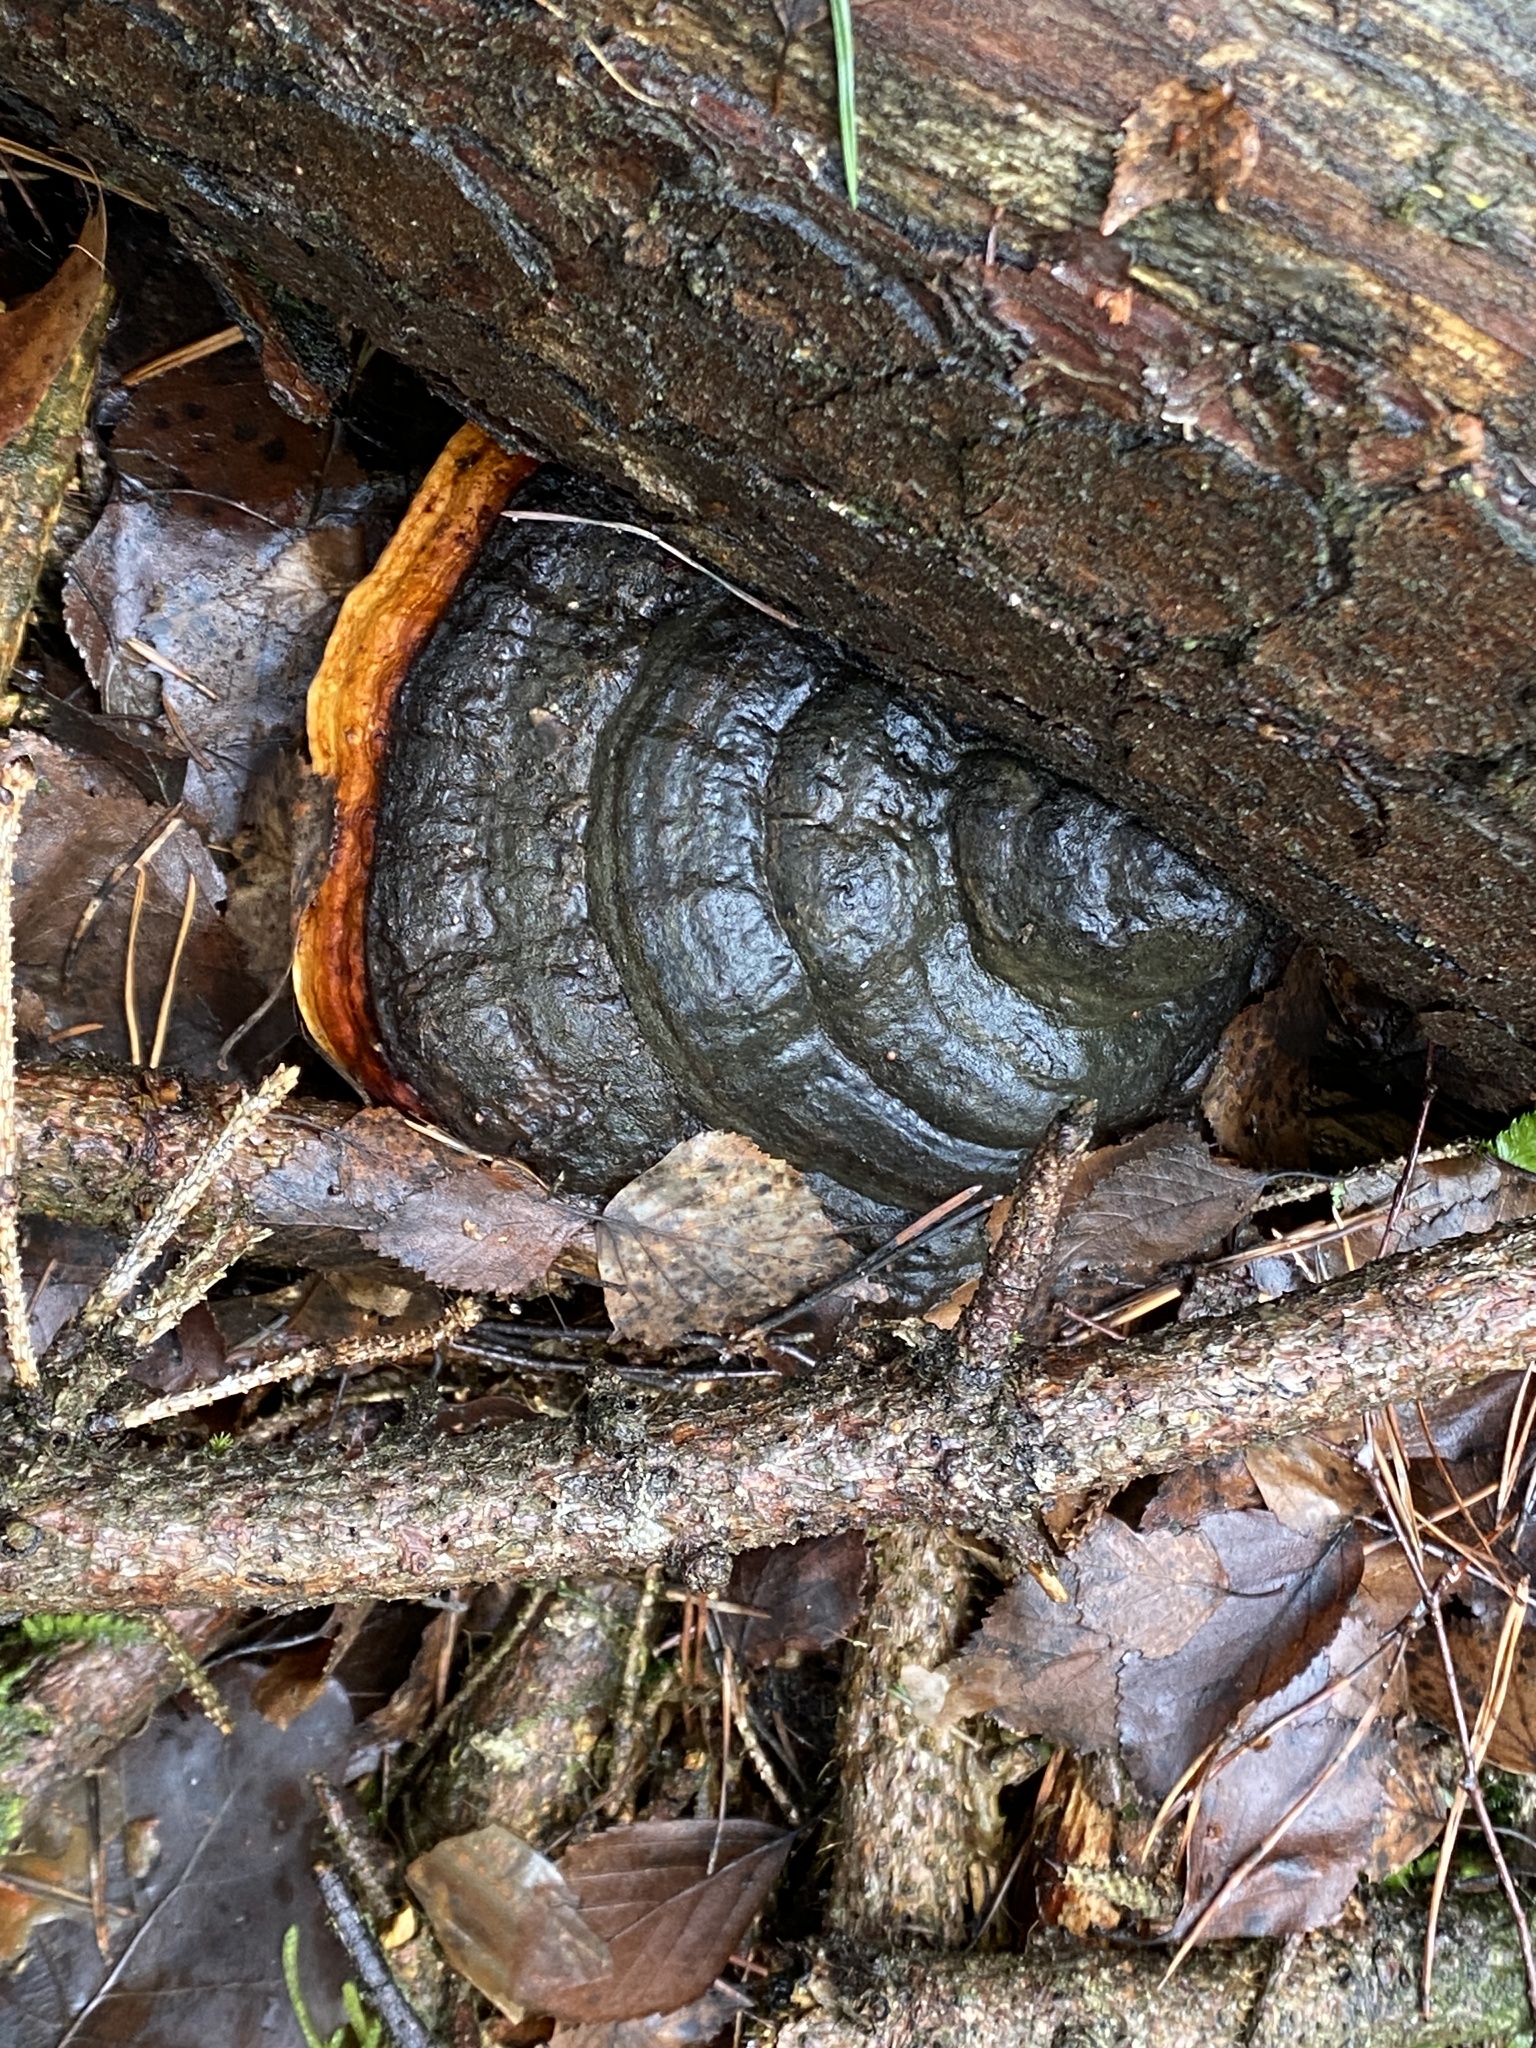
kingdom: Fungi
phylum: Basidiomycota
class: Agaricomycetes
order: Polyporales
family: Fomitopsidaceae
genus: Fomitopsis
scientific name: Fomitopsis pinicola
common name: Red-belted bracket
